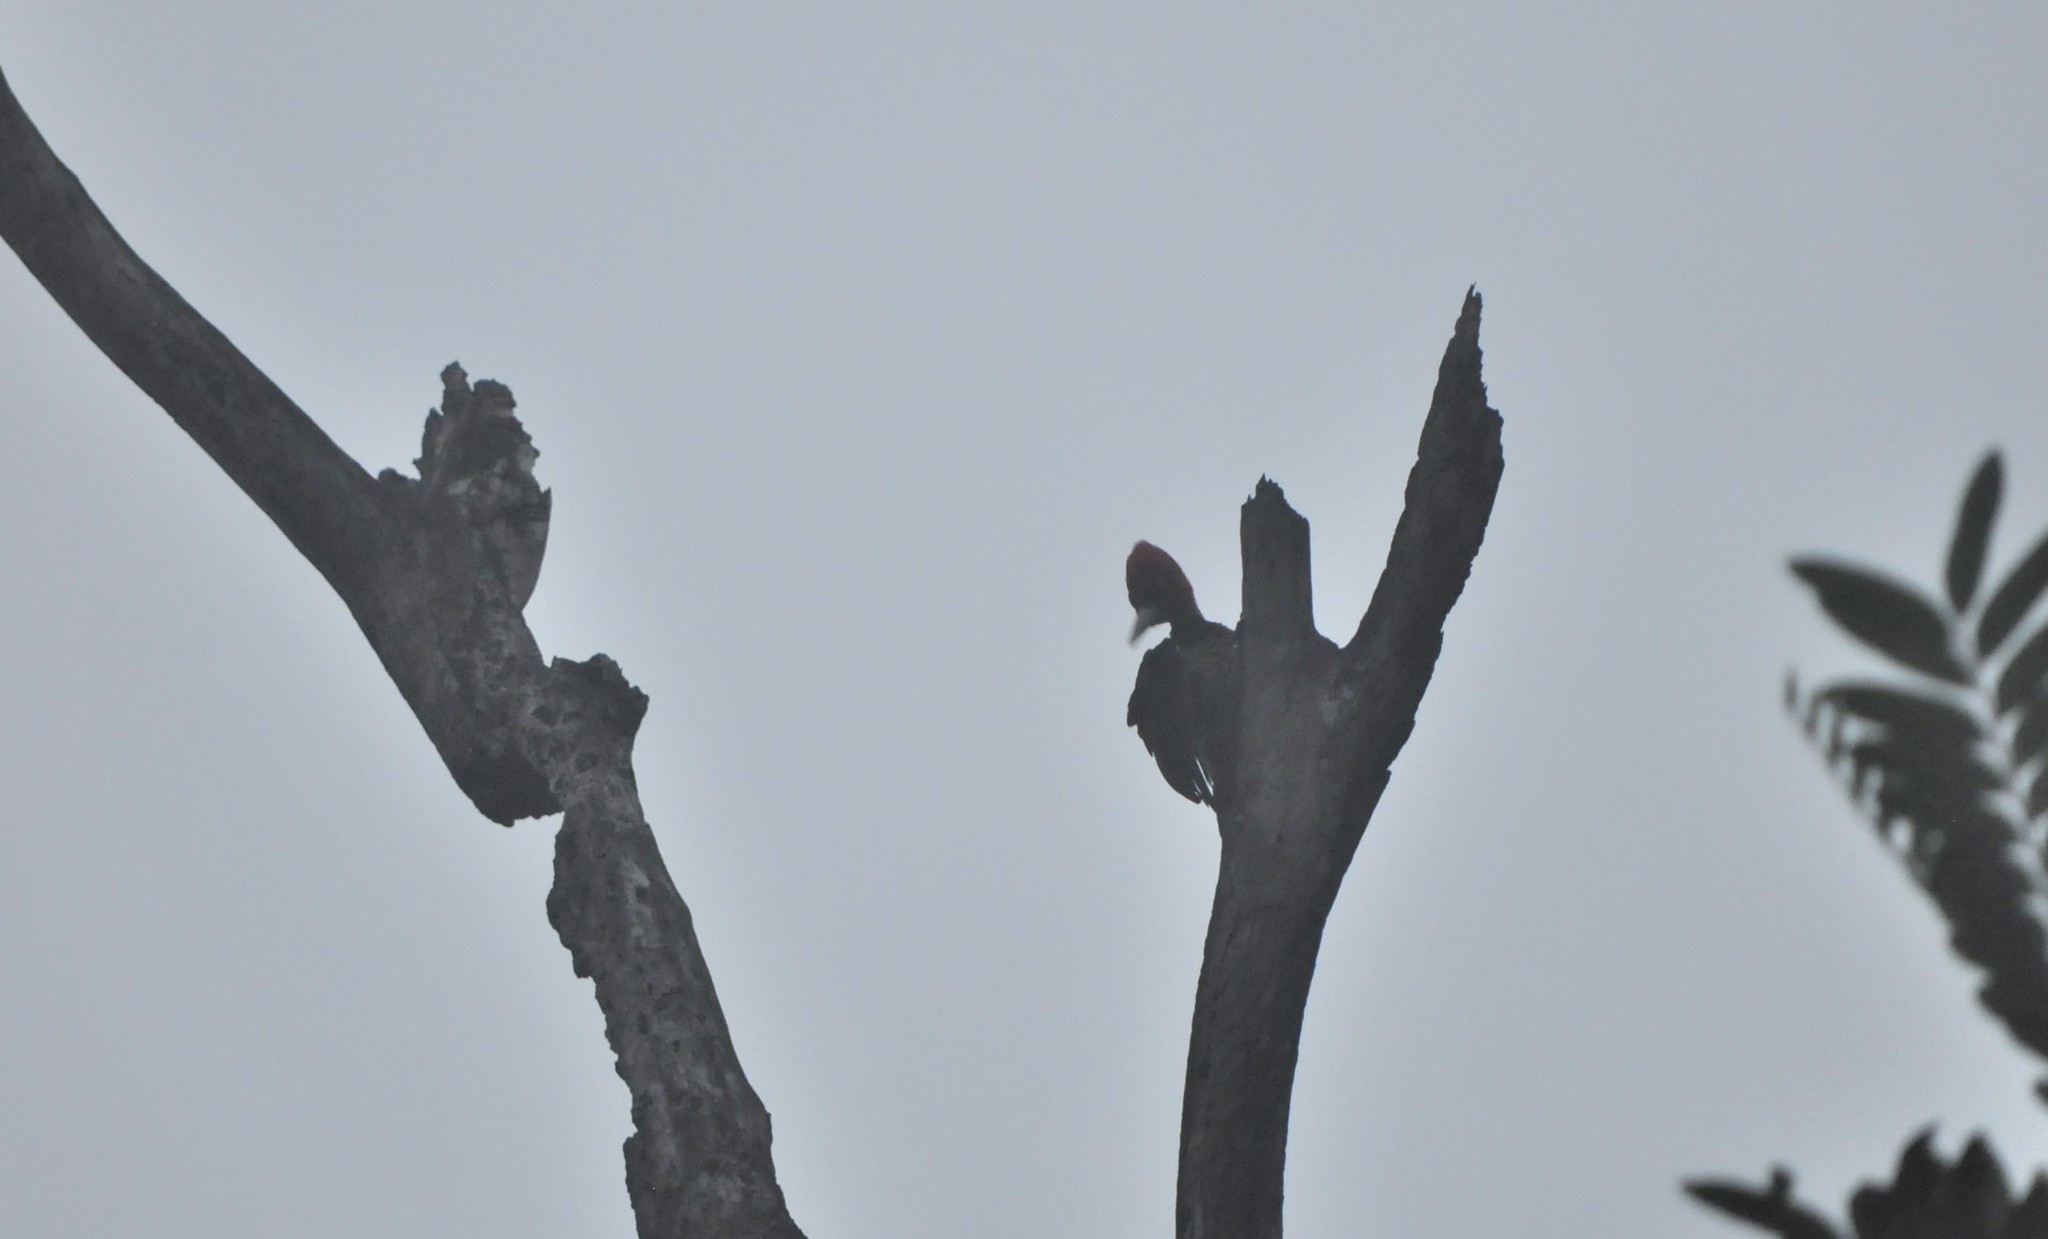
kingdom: Animalia
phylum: Chordata
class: Aves
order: Piciformes
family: Picidae
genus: Campephilus
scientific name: Campephilus guatemalensis
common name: Pale-billed woodpecker
